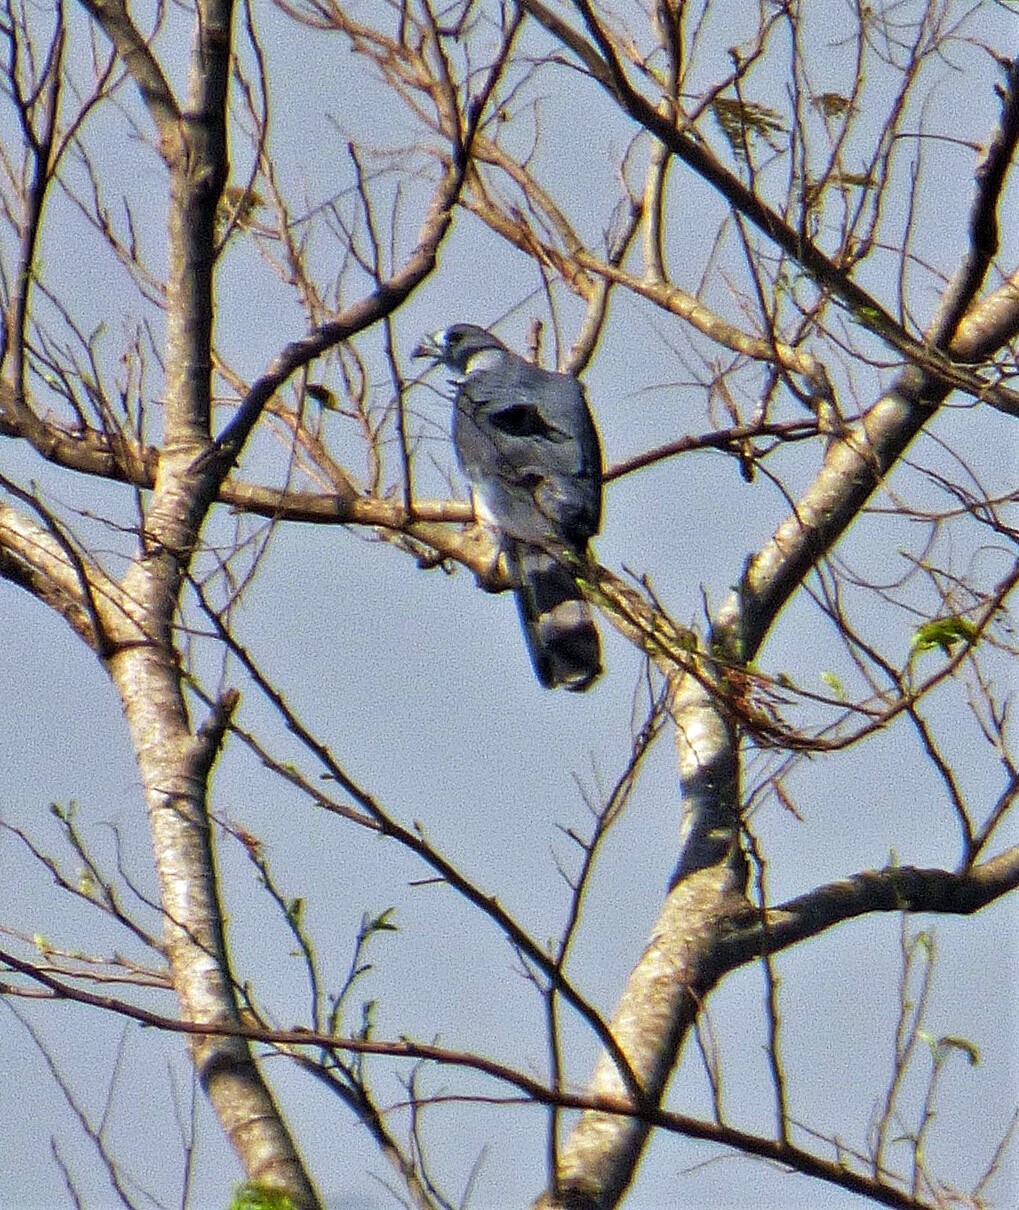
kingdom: Animalia
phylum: Chordata
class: Aves
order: Accipitriformes
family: Accipitridae
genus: Leptodon
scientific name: Leptodon cayanensis
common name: Gray-headed kite
